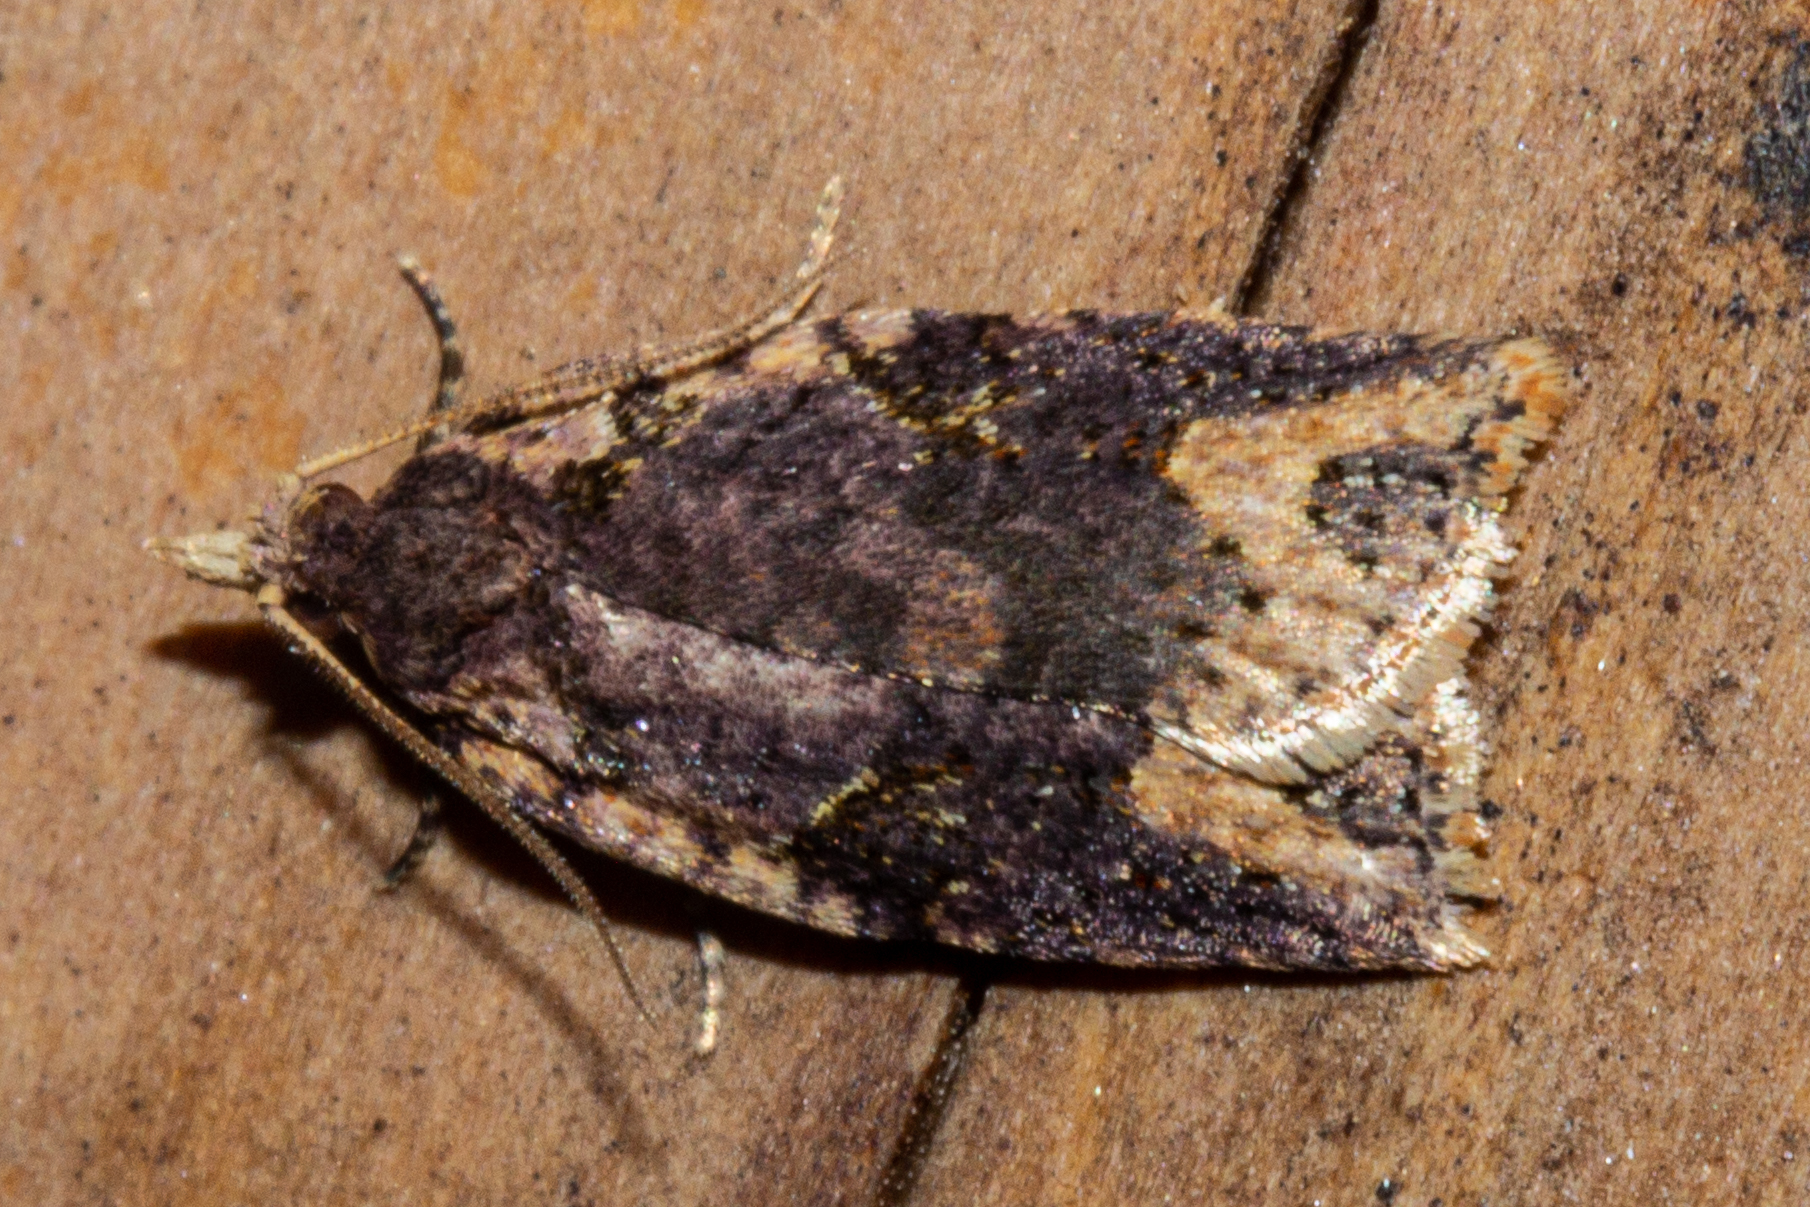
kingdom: Animalia
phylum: Arthropoda
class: Insecta
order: Lepidoptera
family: Tortricidae
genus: Ctenopseustis
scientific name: Ctenopseustis obliquana
